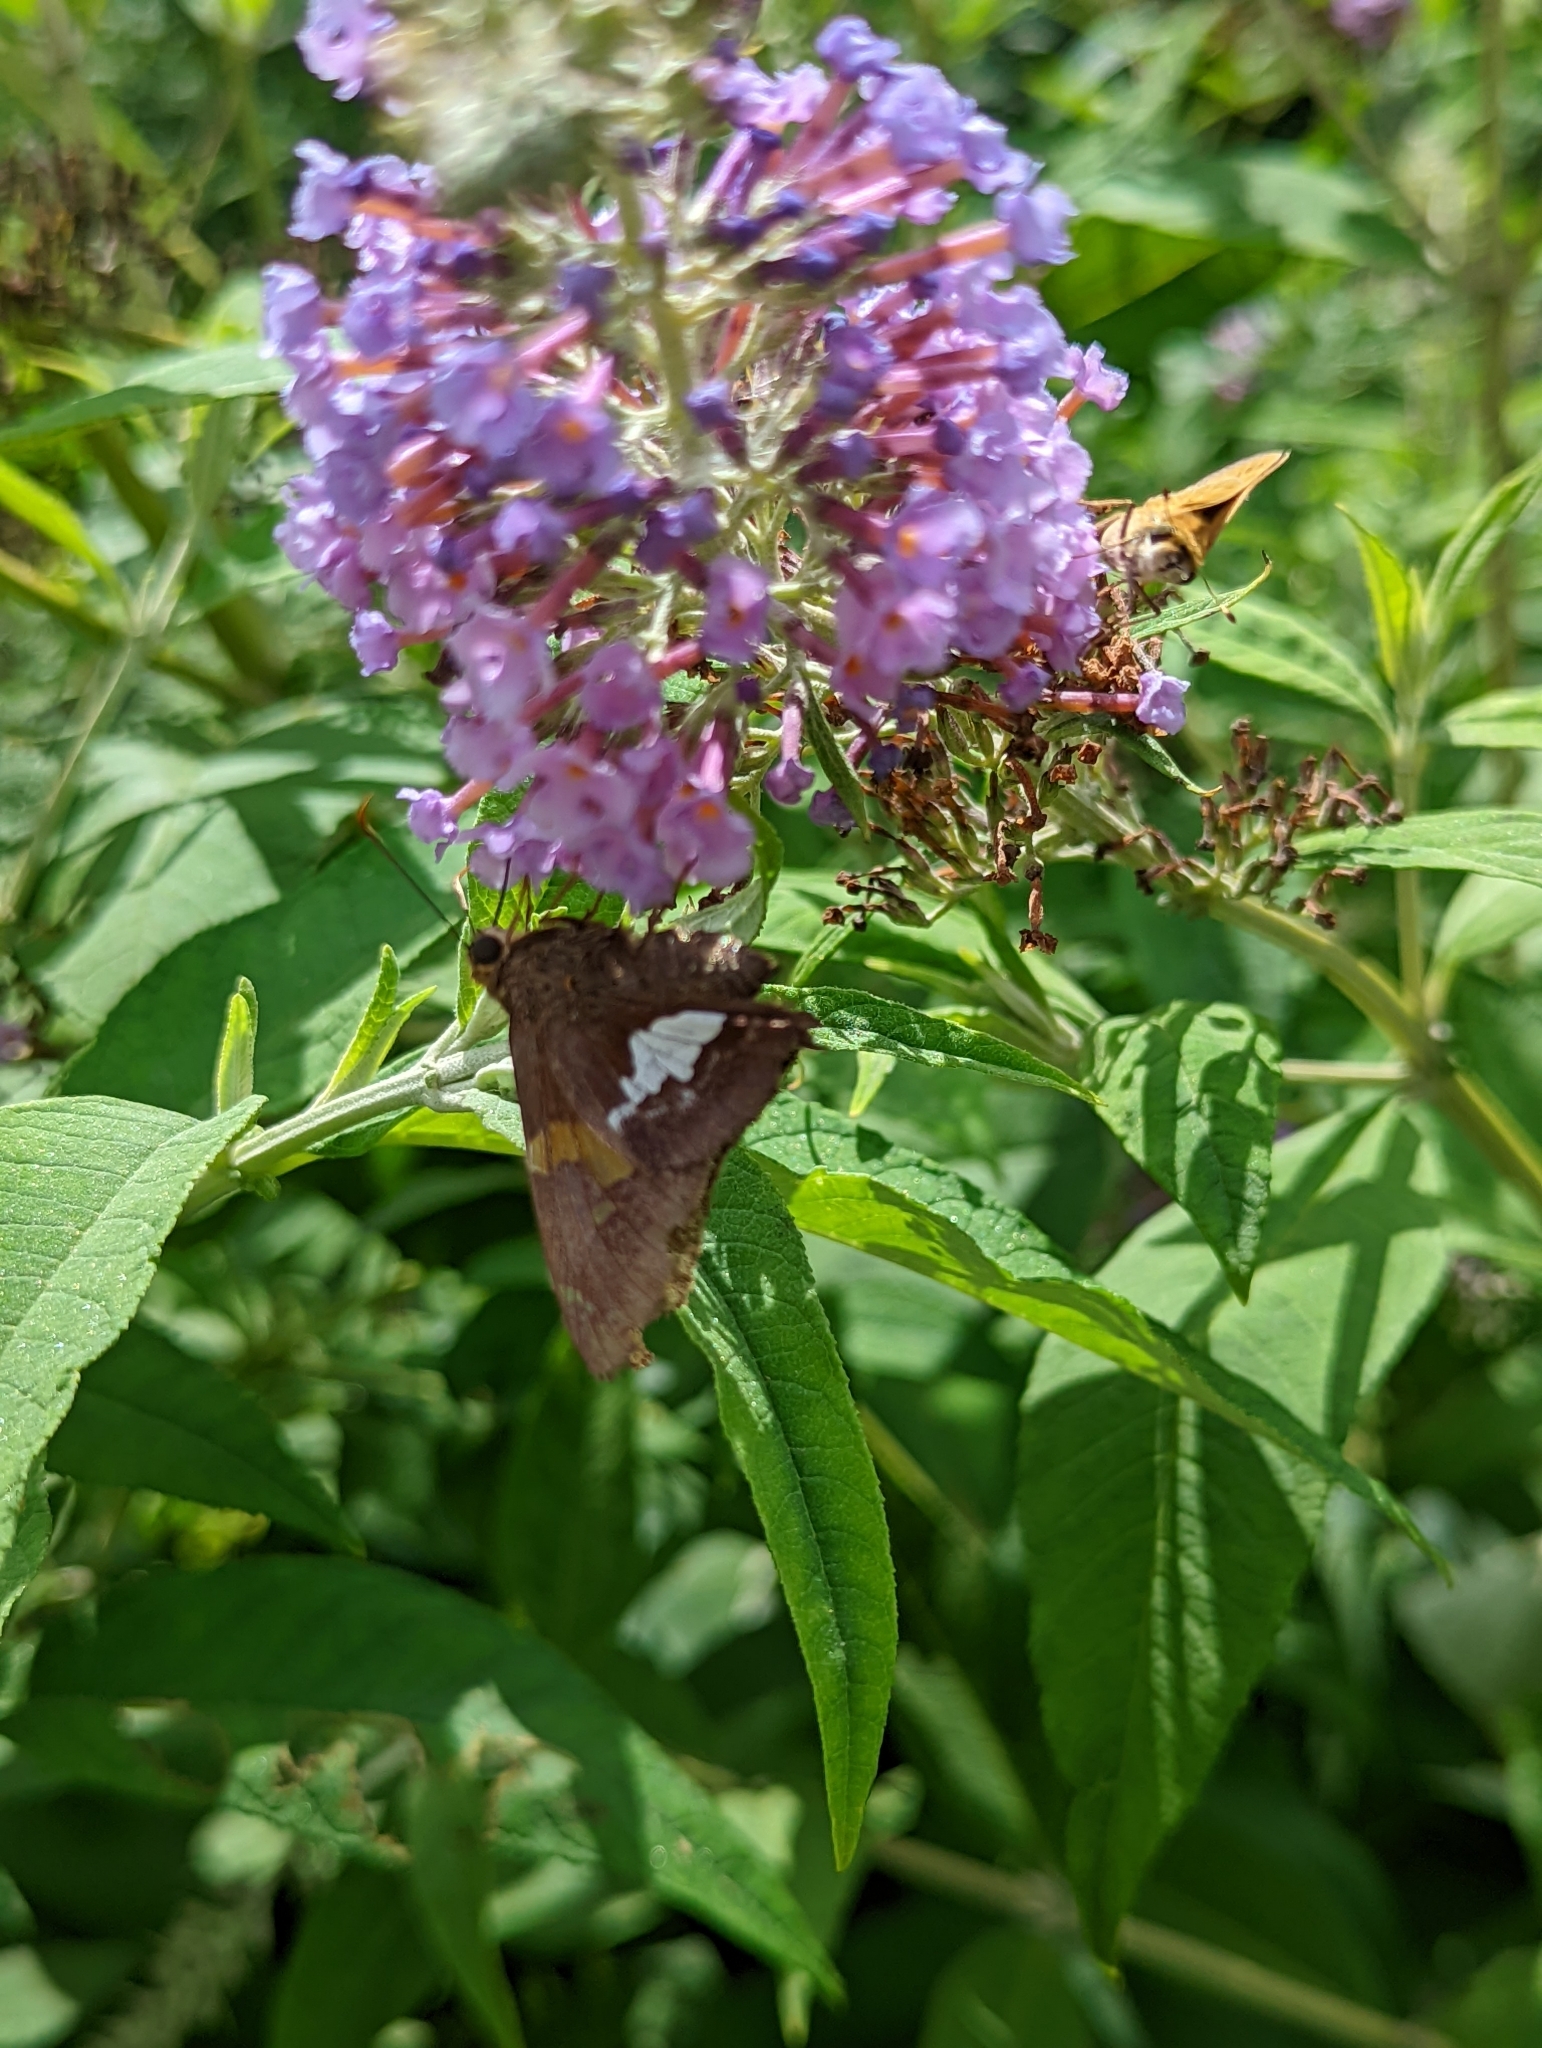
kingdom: Animalia
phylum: Arthropoda
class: Insecta
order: Lepidoptera
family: Hesperiidae
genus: Epargyreus
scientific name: Epargyreus clarus
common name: Silver-spotted skipper
